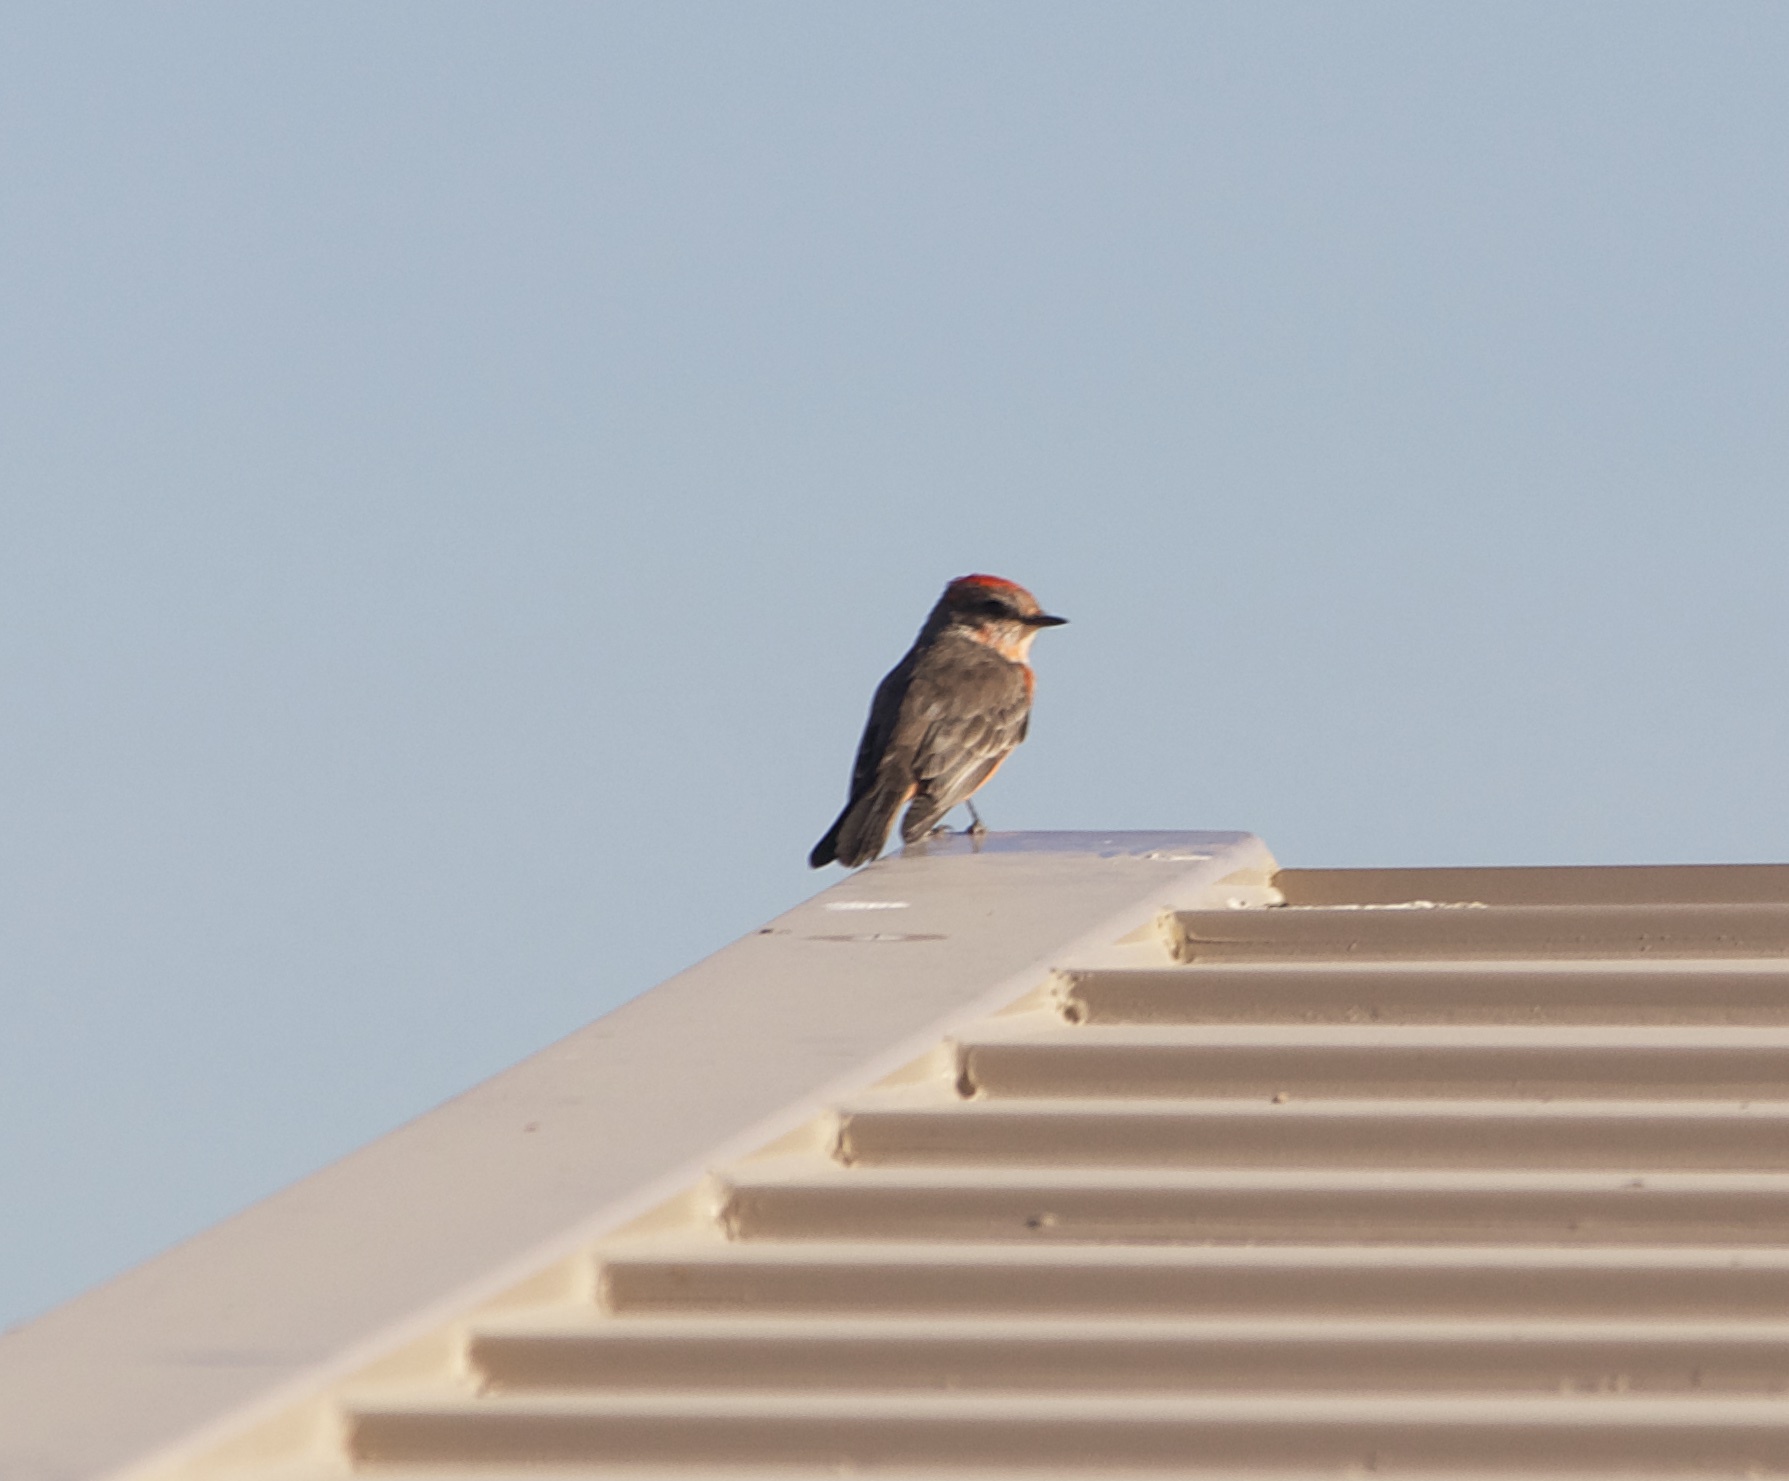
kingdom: Animalia
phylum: Chordata
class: Aves
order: Passeriformes
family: Tyrannidae
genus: Pyrocephalus
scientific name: Pyrocephalus rubinus
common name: Vermilion flycatcher
